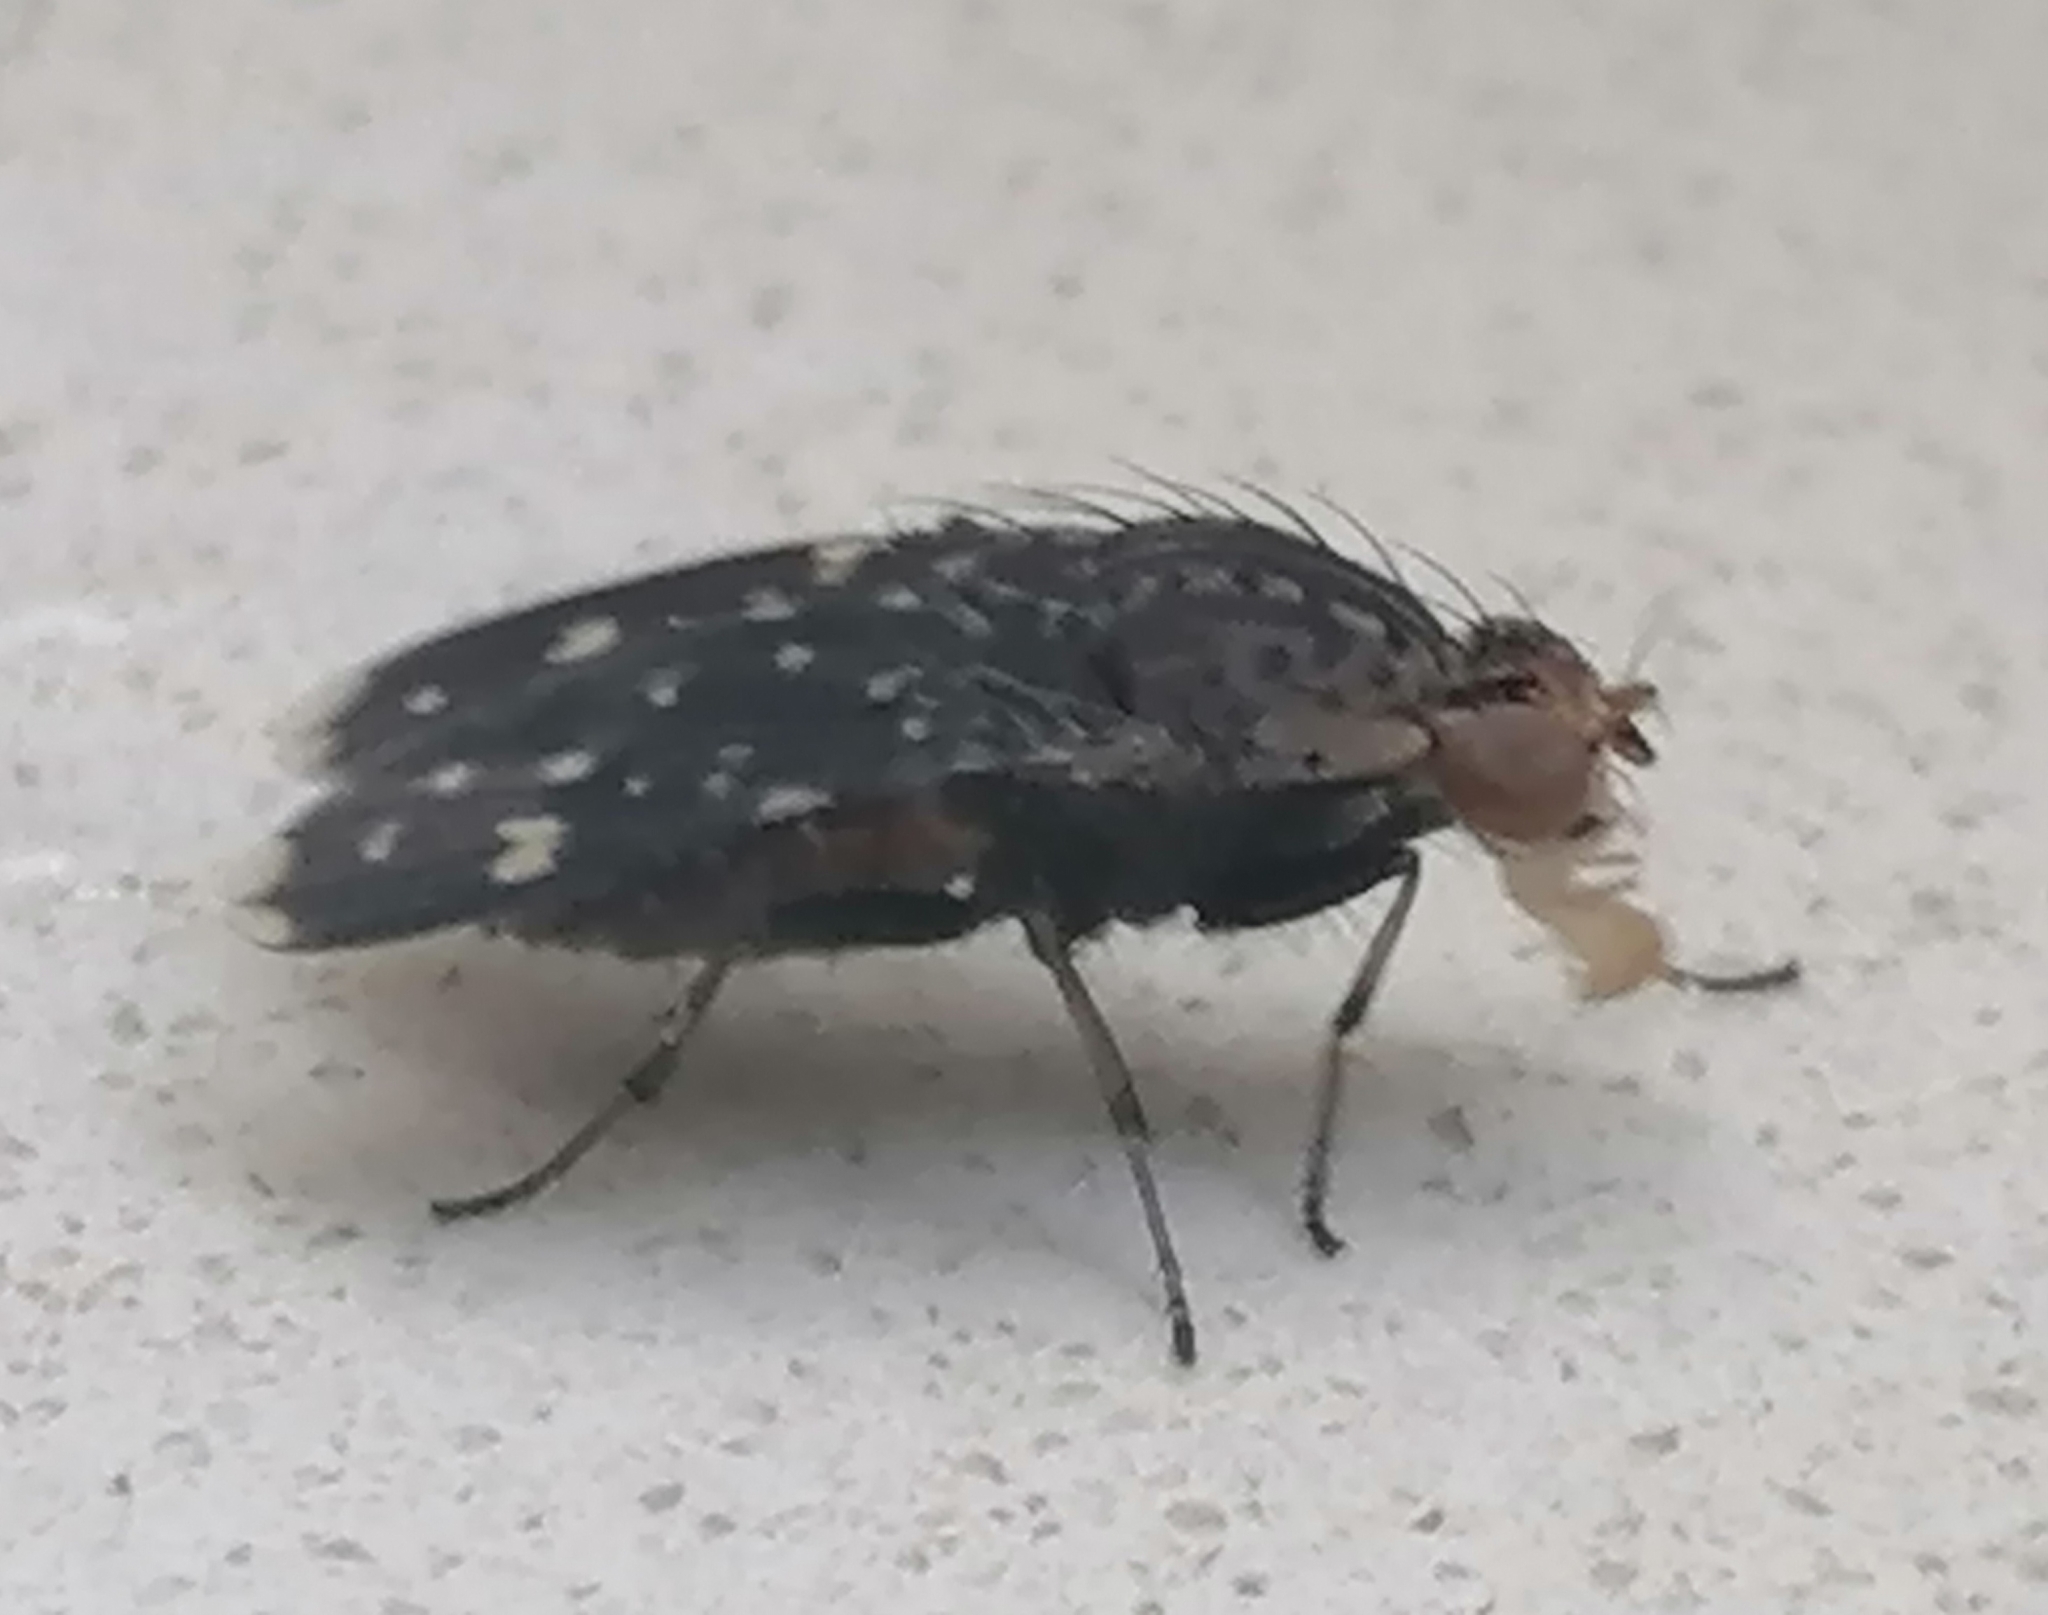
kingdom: Animalia
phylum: Arthropoda
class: Insecta
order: Diptera
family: Heleomyzidae
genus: Suillia
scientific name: Suillia picta
